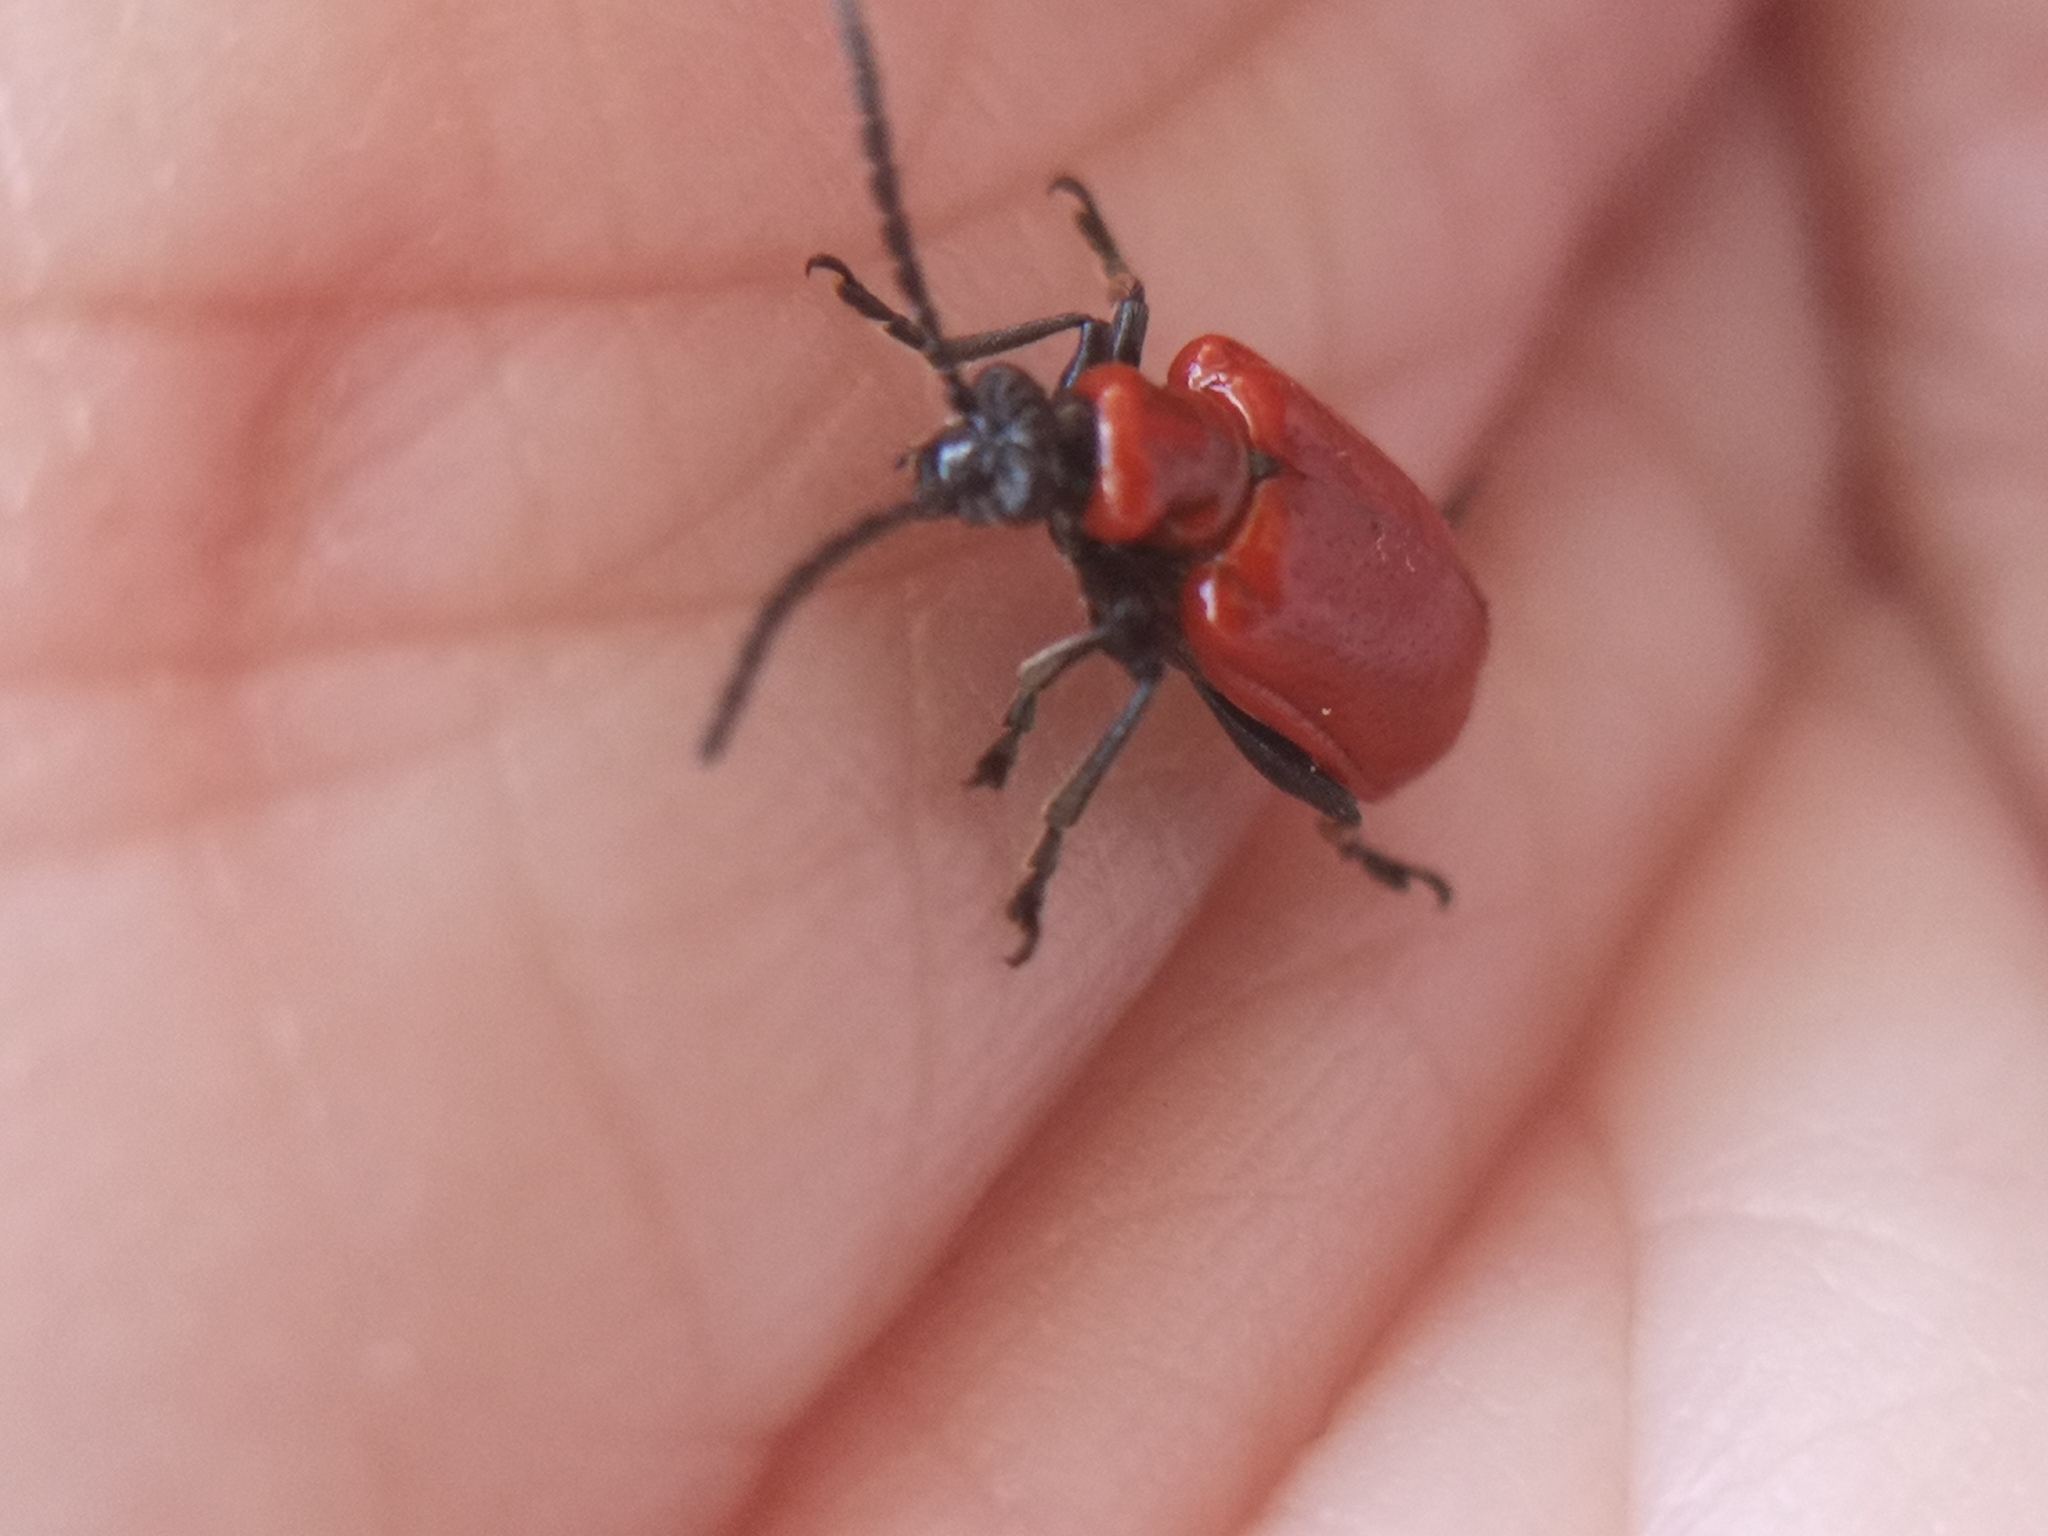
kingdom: Animalia
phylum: Arthropoda
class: Insecta
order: Coleoptera
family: Chrysomelidae
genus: Lilioceris
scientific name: Lilioceris lilii
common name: Lily beetle
